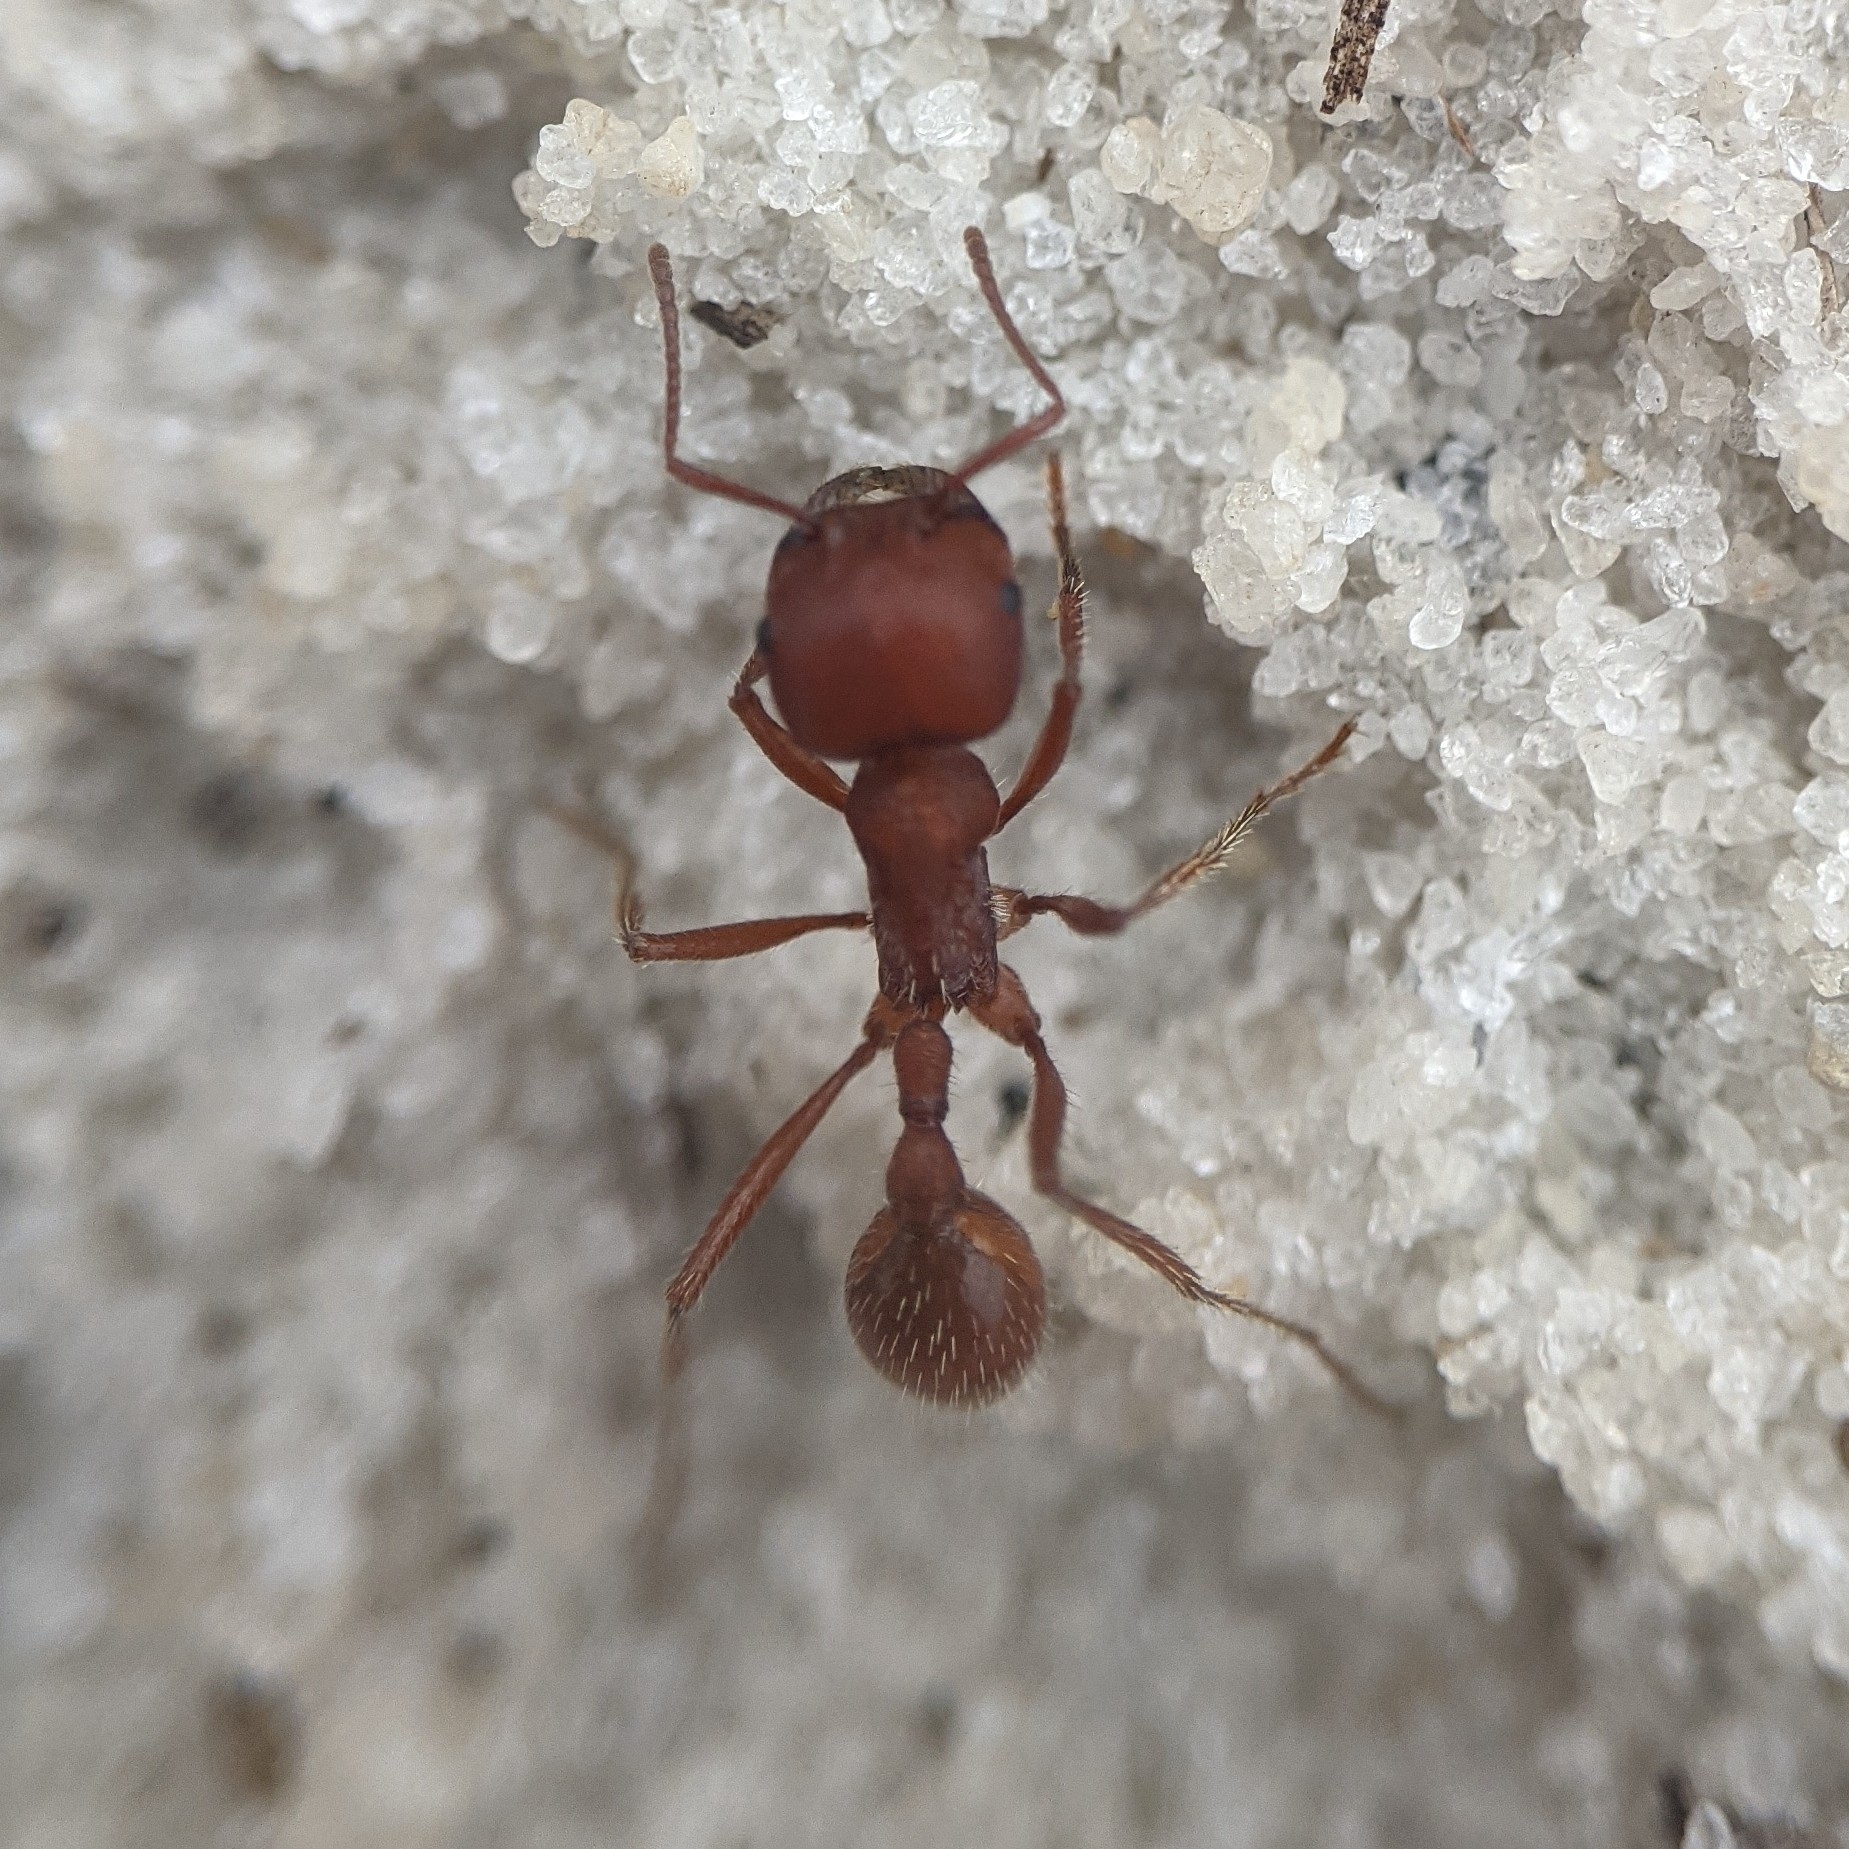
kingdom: Animalia
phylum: Arthropoda
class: Insecta
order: Hymenoptera
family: Formicidae
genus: Pogonomyrmex
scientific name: Pogonomyrmex badius
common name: Florida harvester ant
